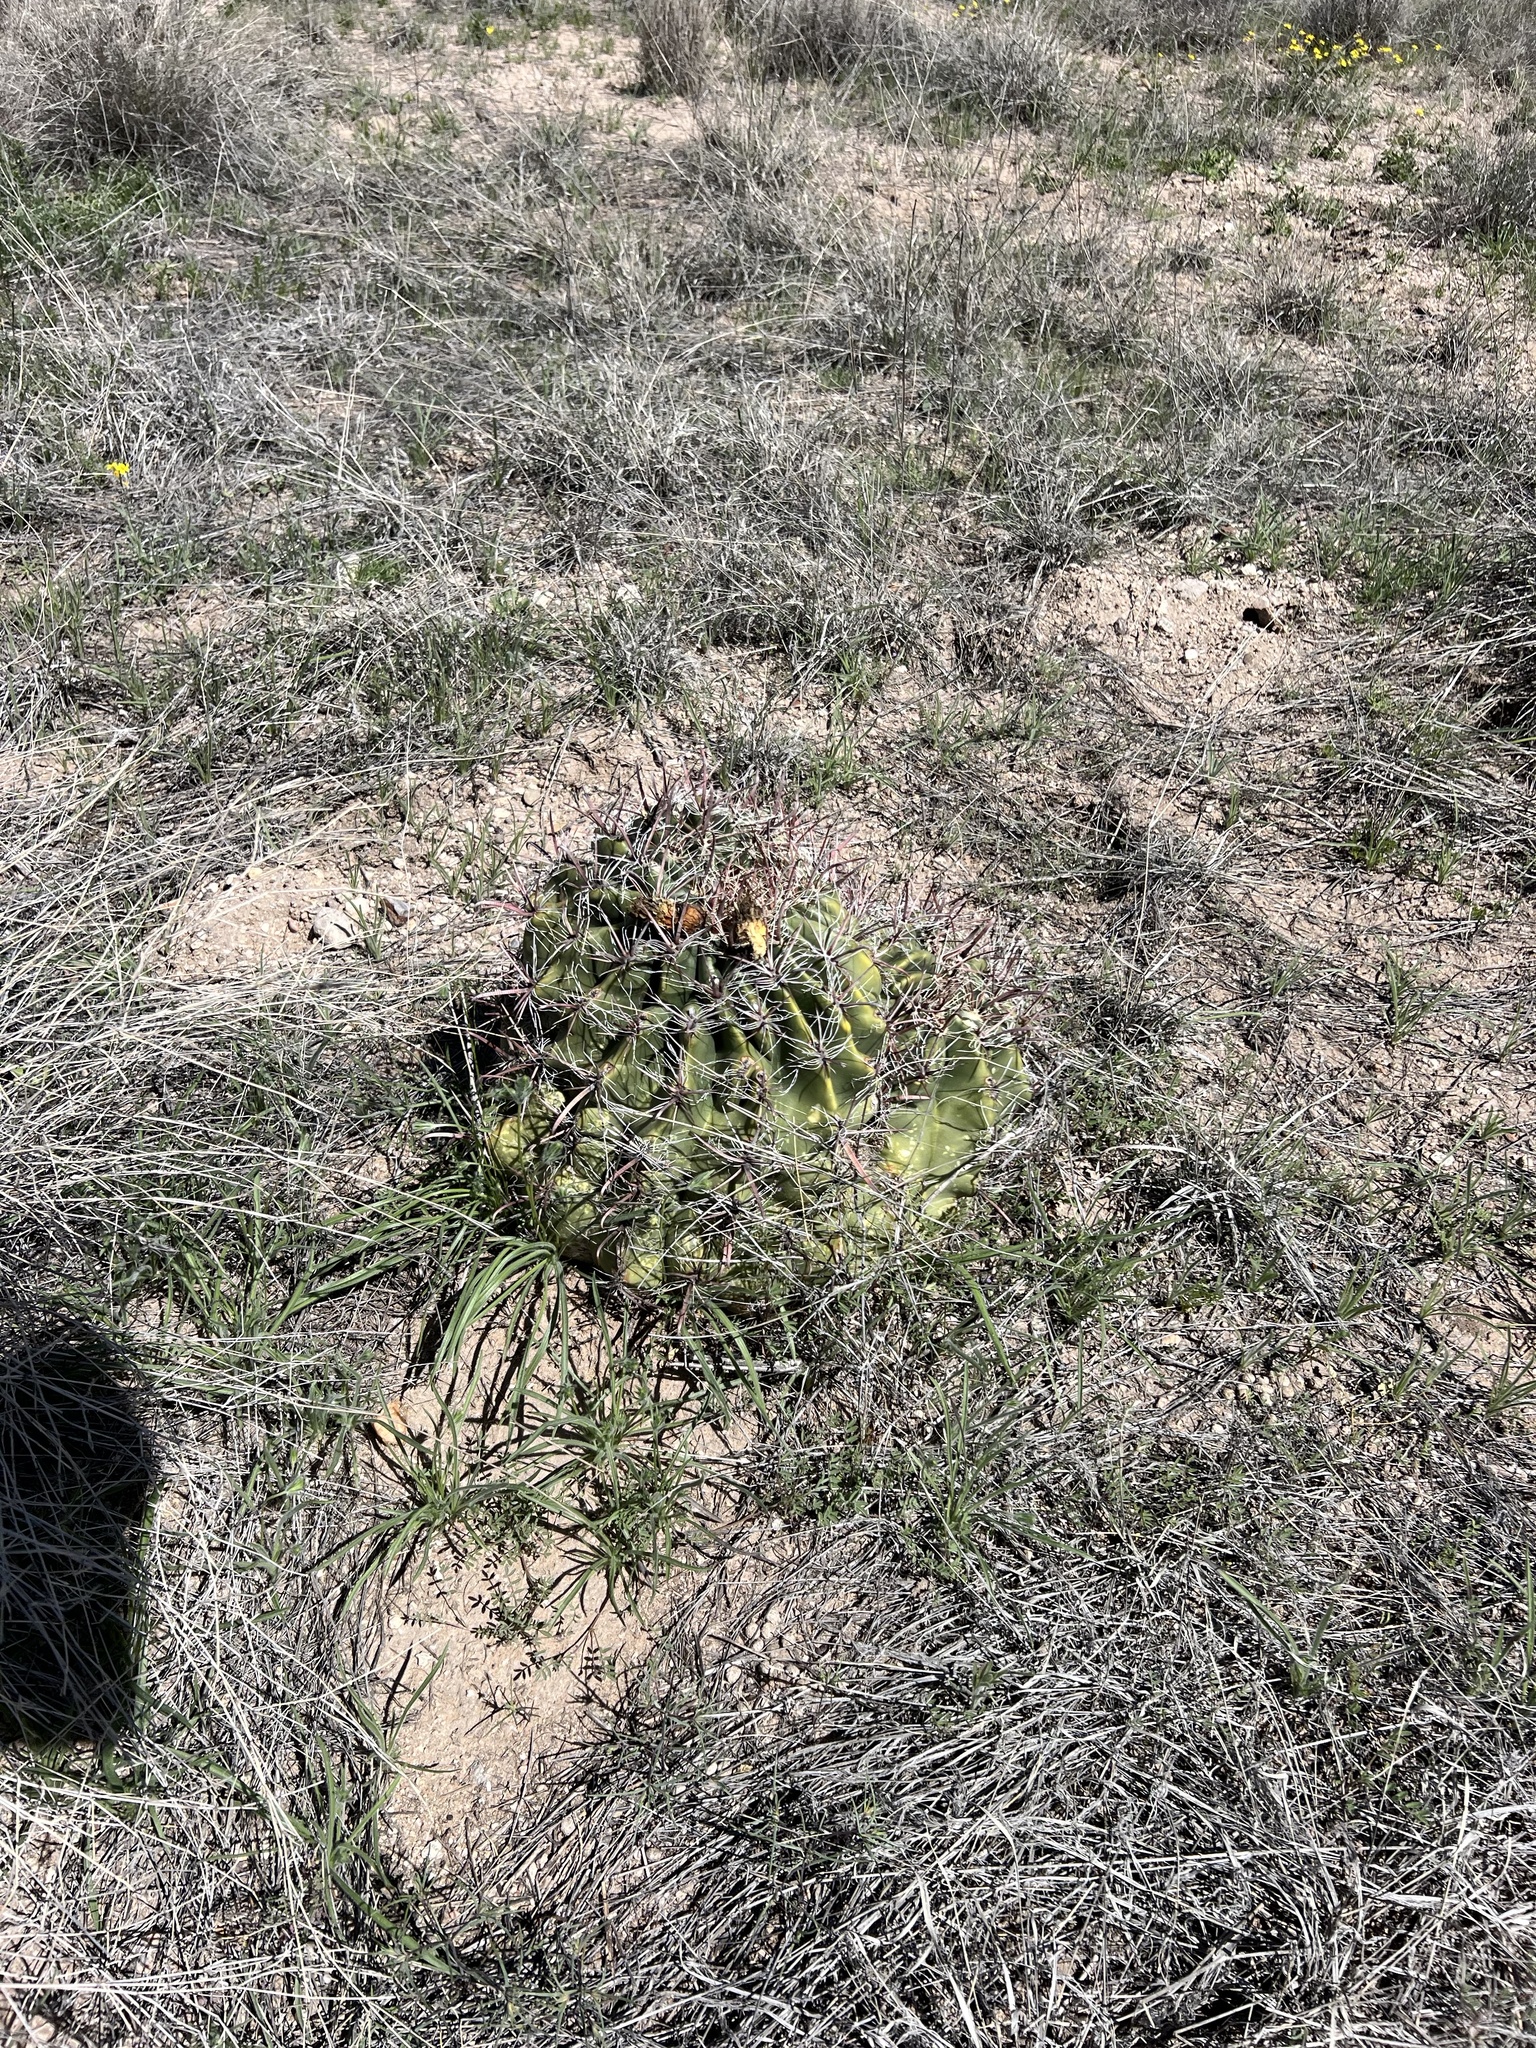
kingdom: Plantae
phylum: Tracheophyta
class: Magnoliopsida
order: Caryophyllales
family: Cactaceae
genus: Ferocactus
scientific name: Ferocactus wislizeni
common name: Candy barrel cactus
